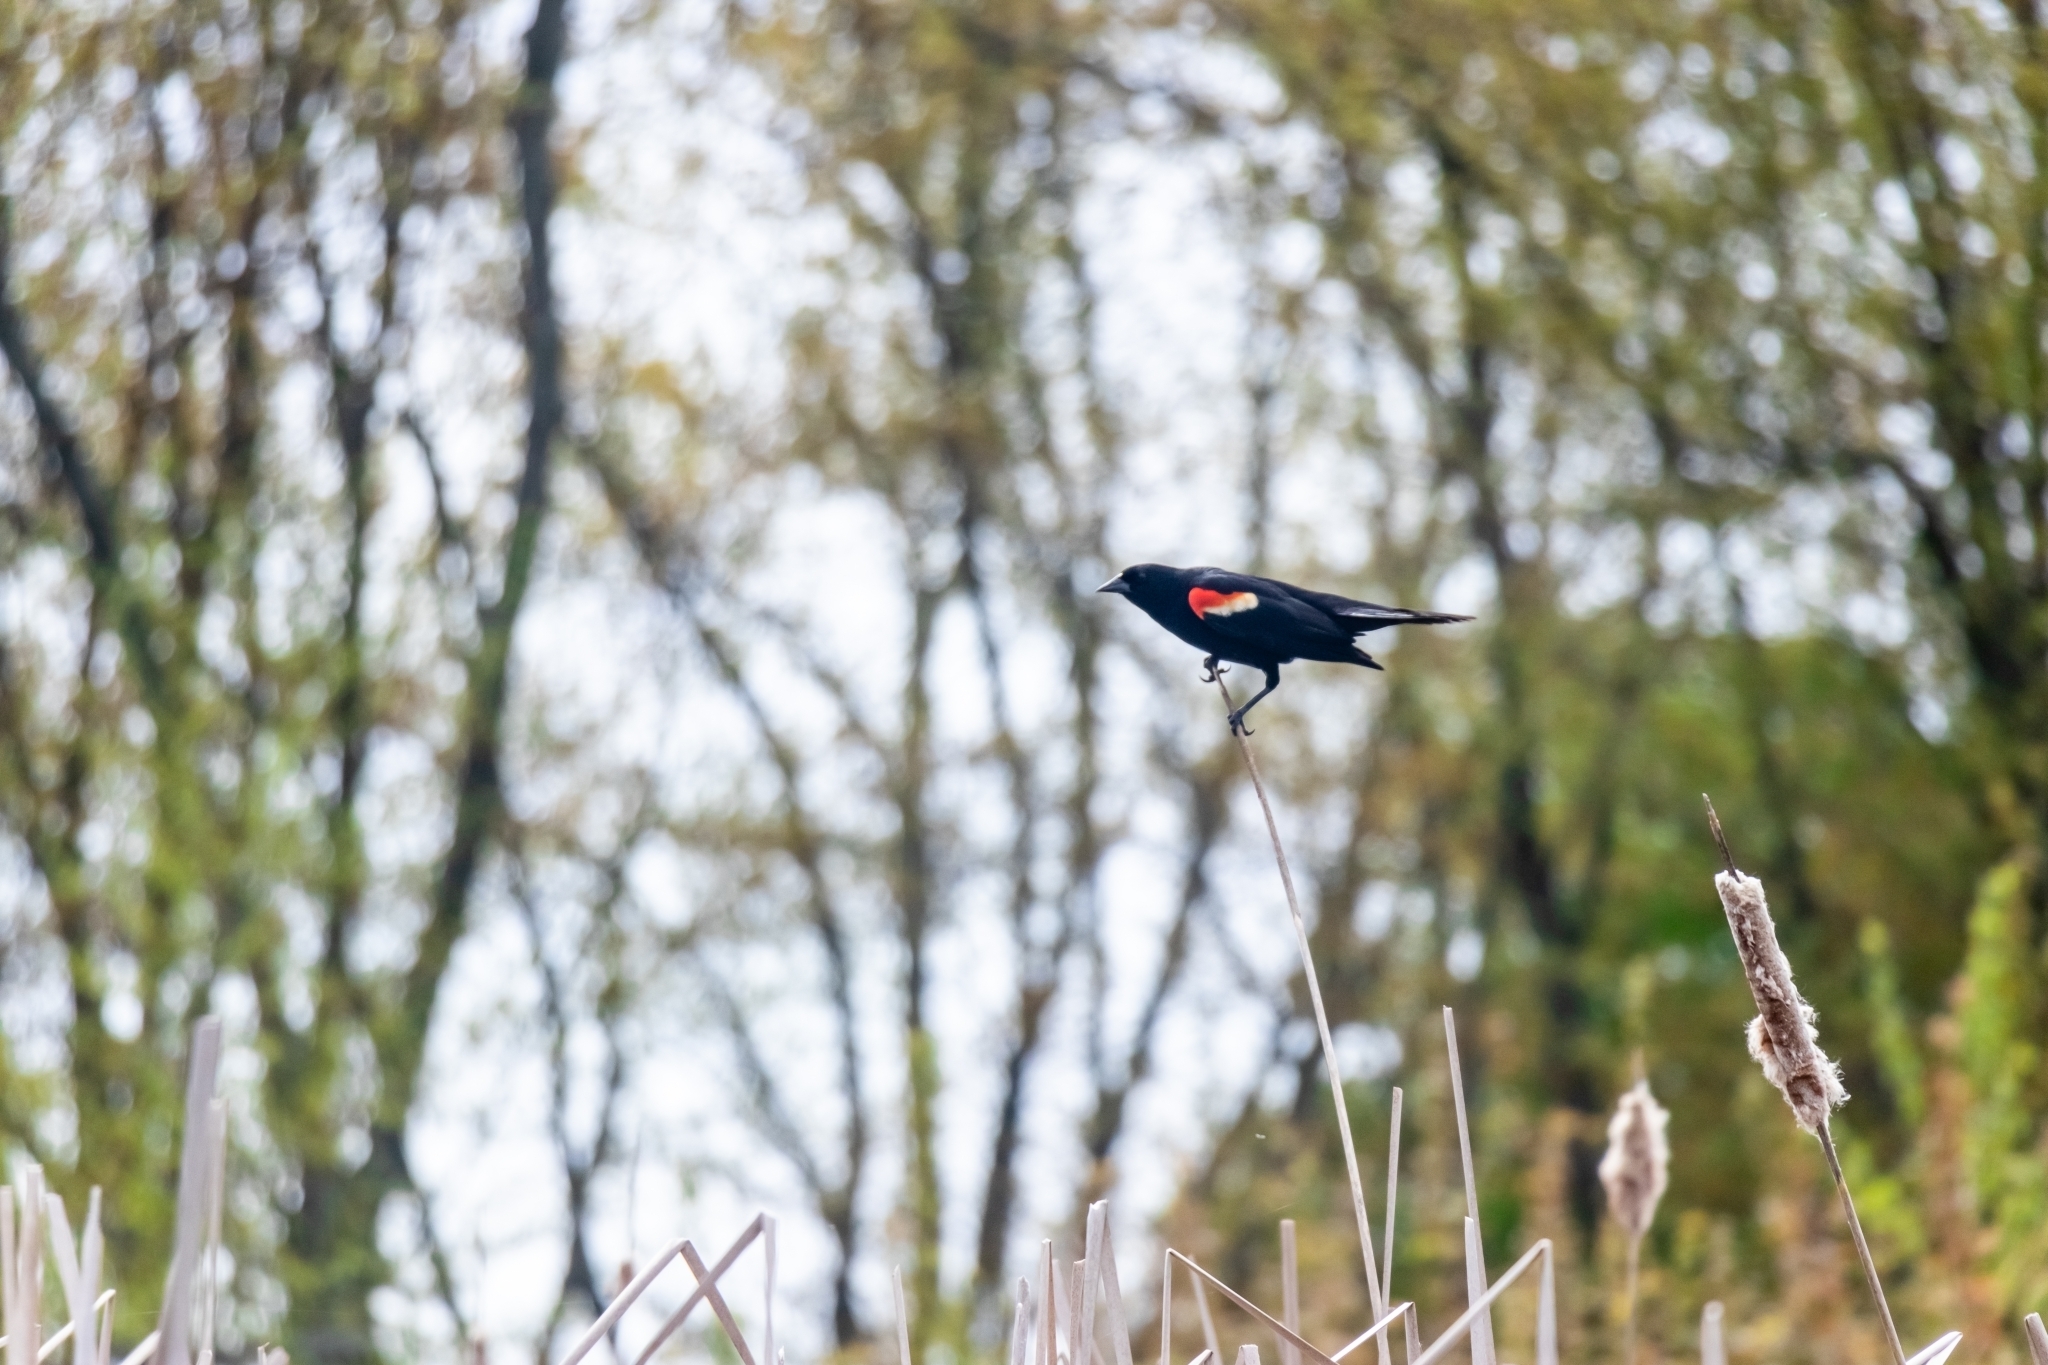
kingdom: Animalia
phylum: Chordata
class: Aves
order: Passeriformes
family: Icteridae
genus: Agelaius
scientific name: Agelaius phoeniceus
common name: Red-winged blackbird
